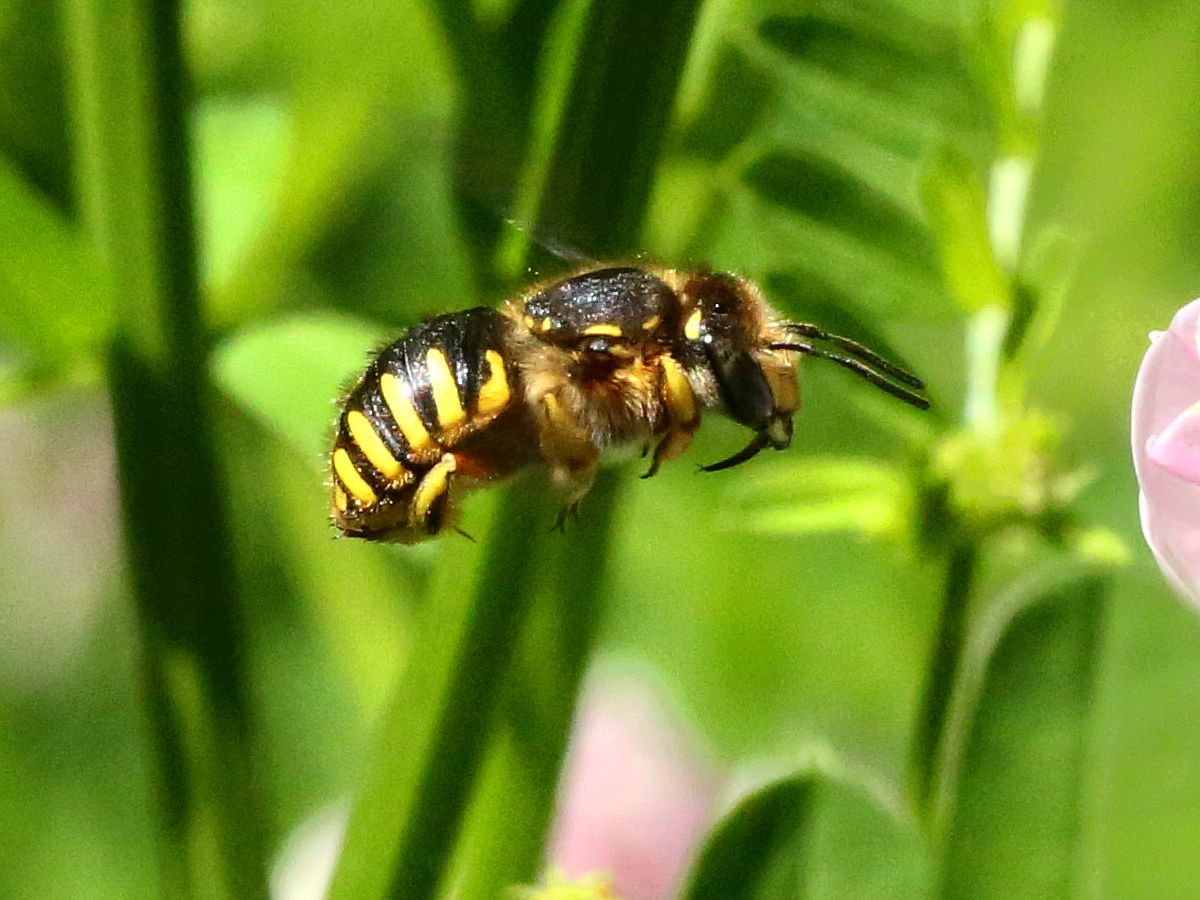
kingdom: Animalia
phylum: Arthropoda
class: Insecta
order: Hymenoptera
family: Megachilidae
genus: Anthidium
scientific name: Anthidium manicatum
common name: Wool carder bee
